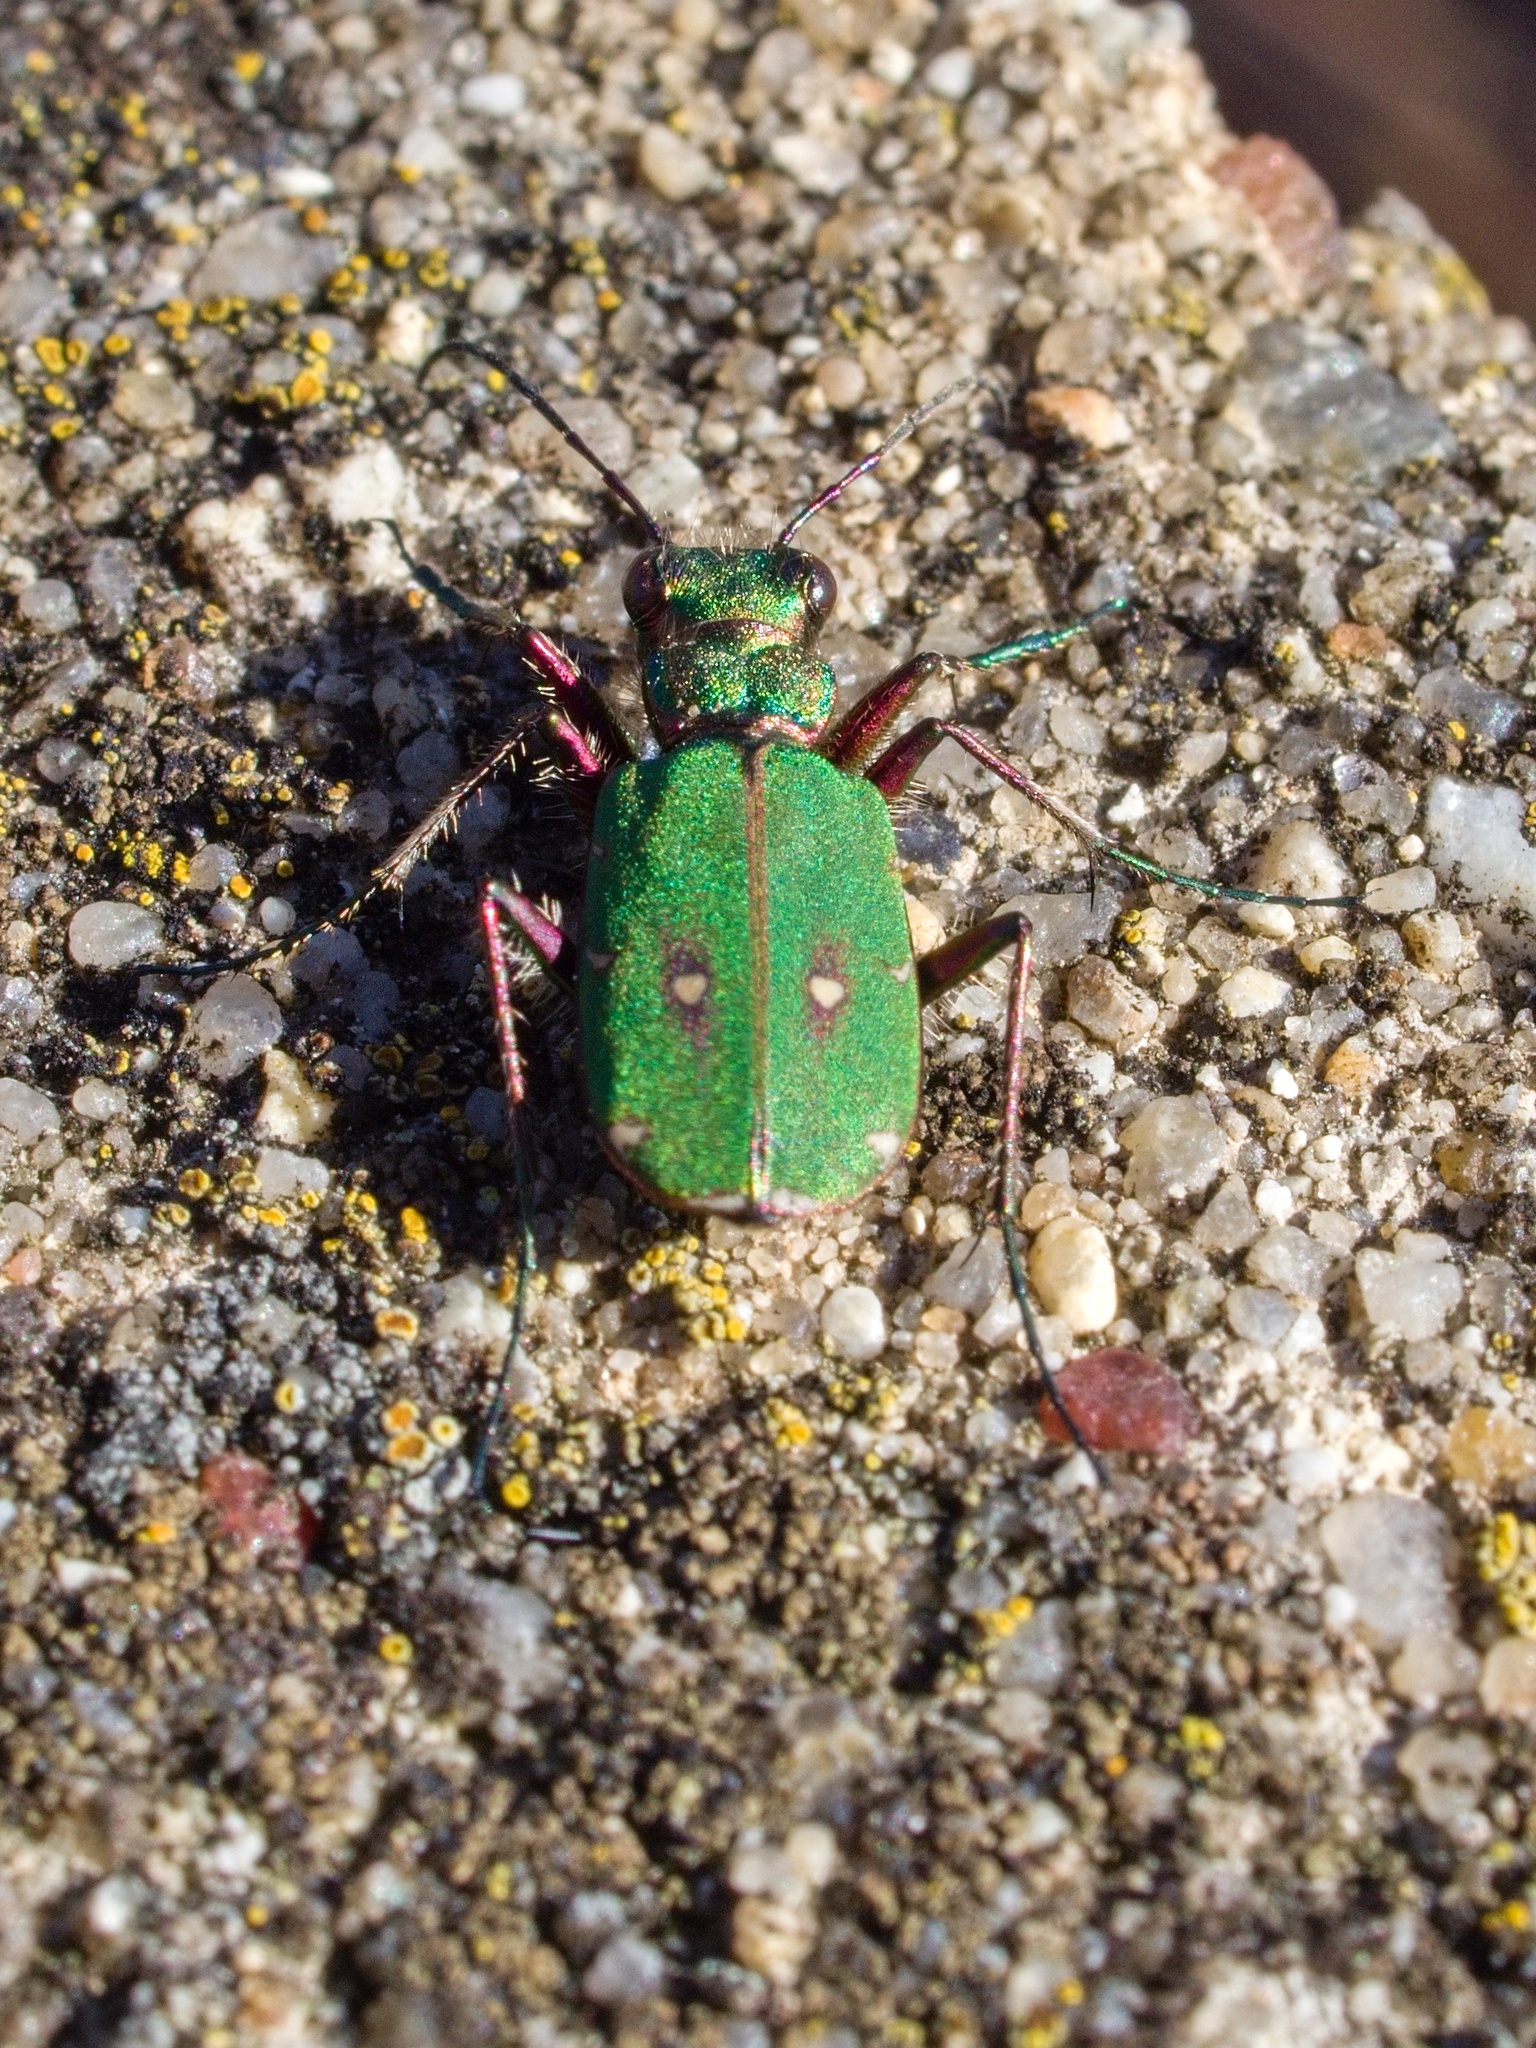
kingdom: Animalia
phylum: Arthropoda
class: Insecta
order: Coleoptera
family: Carabidae
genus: Cicindela
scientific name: Cicindela campestris
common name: Common tiger beetle
